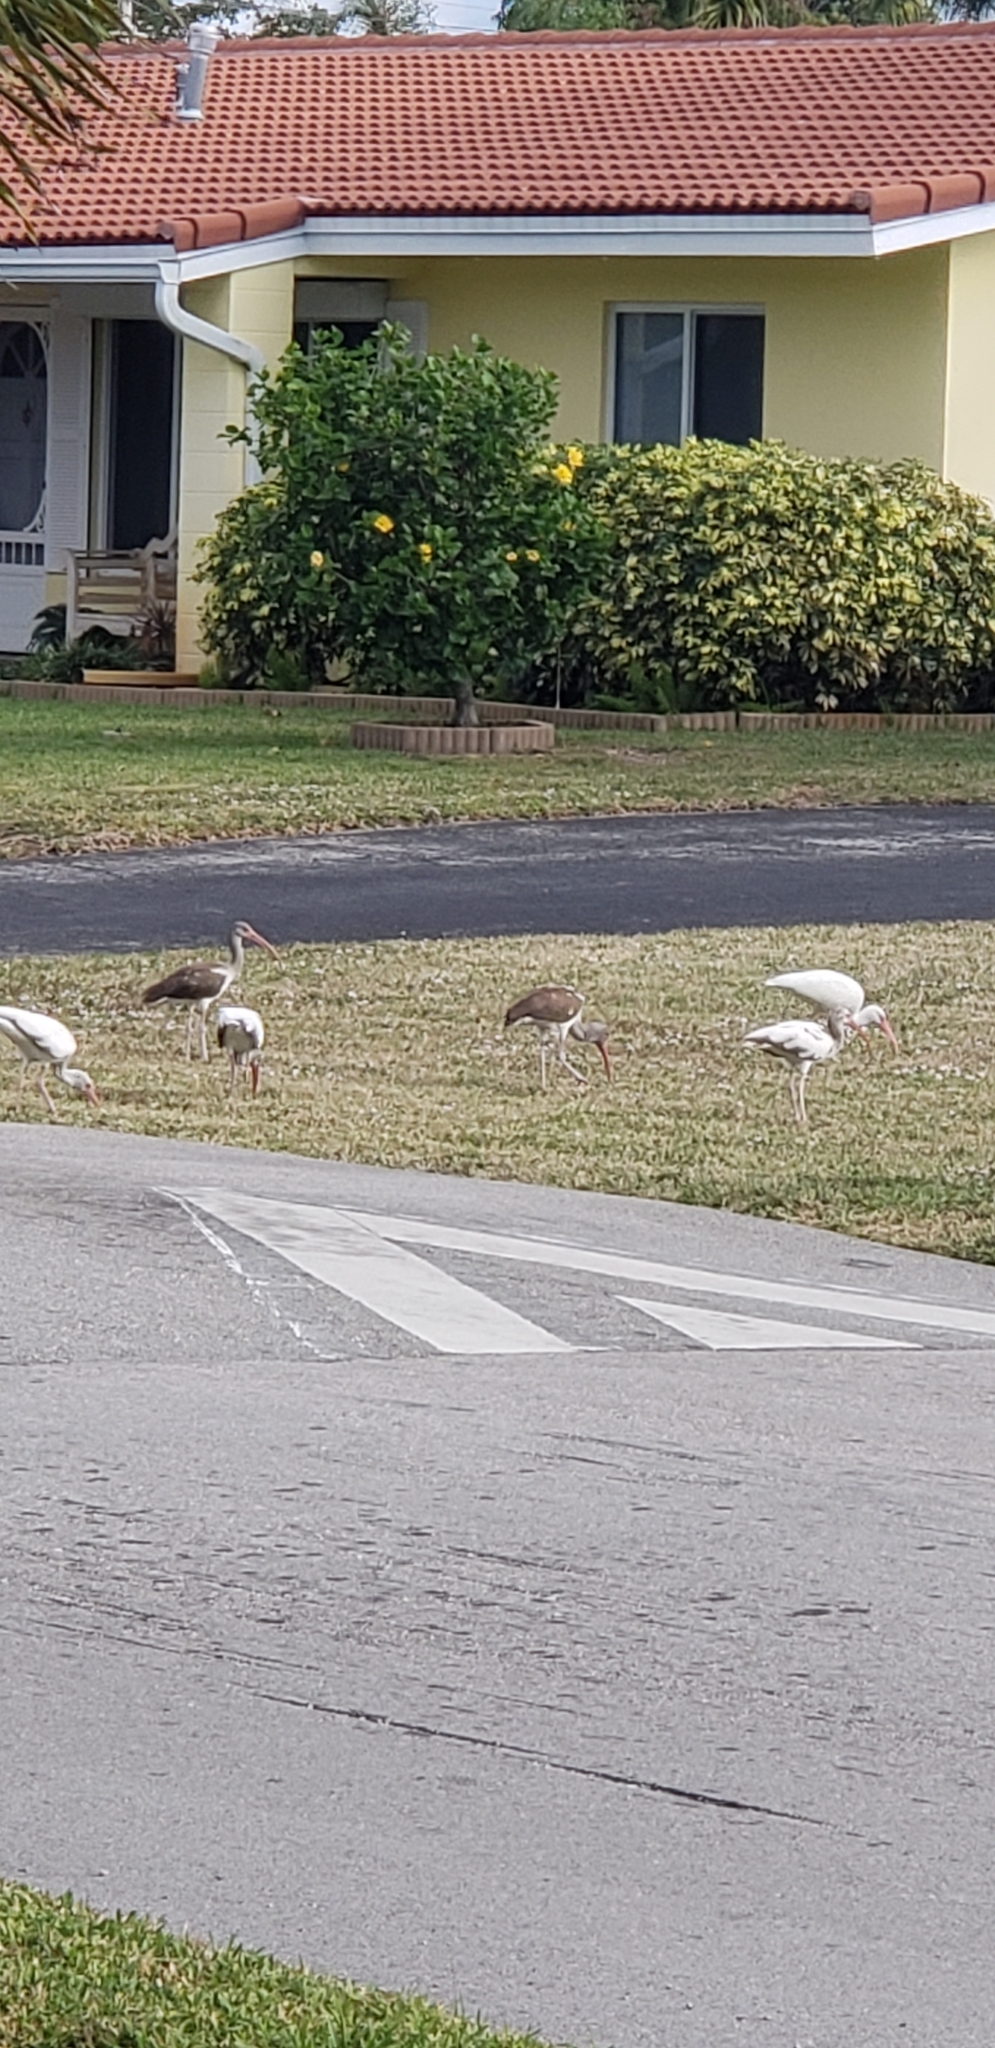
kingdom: Animalia
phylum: Chordata
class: Aves
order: Pelecaniformes
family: Threskiornithidae
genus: Eudocimus
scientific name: Eudocimus albus
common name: White ibis
